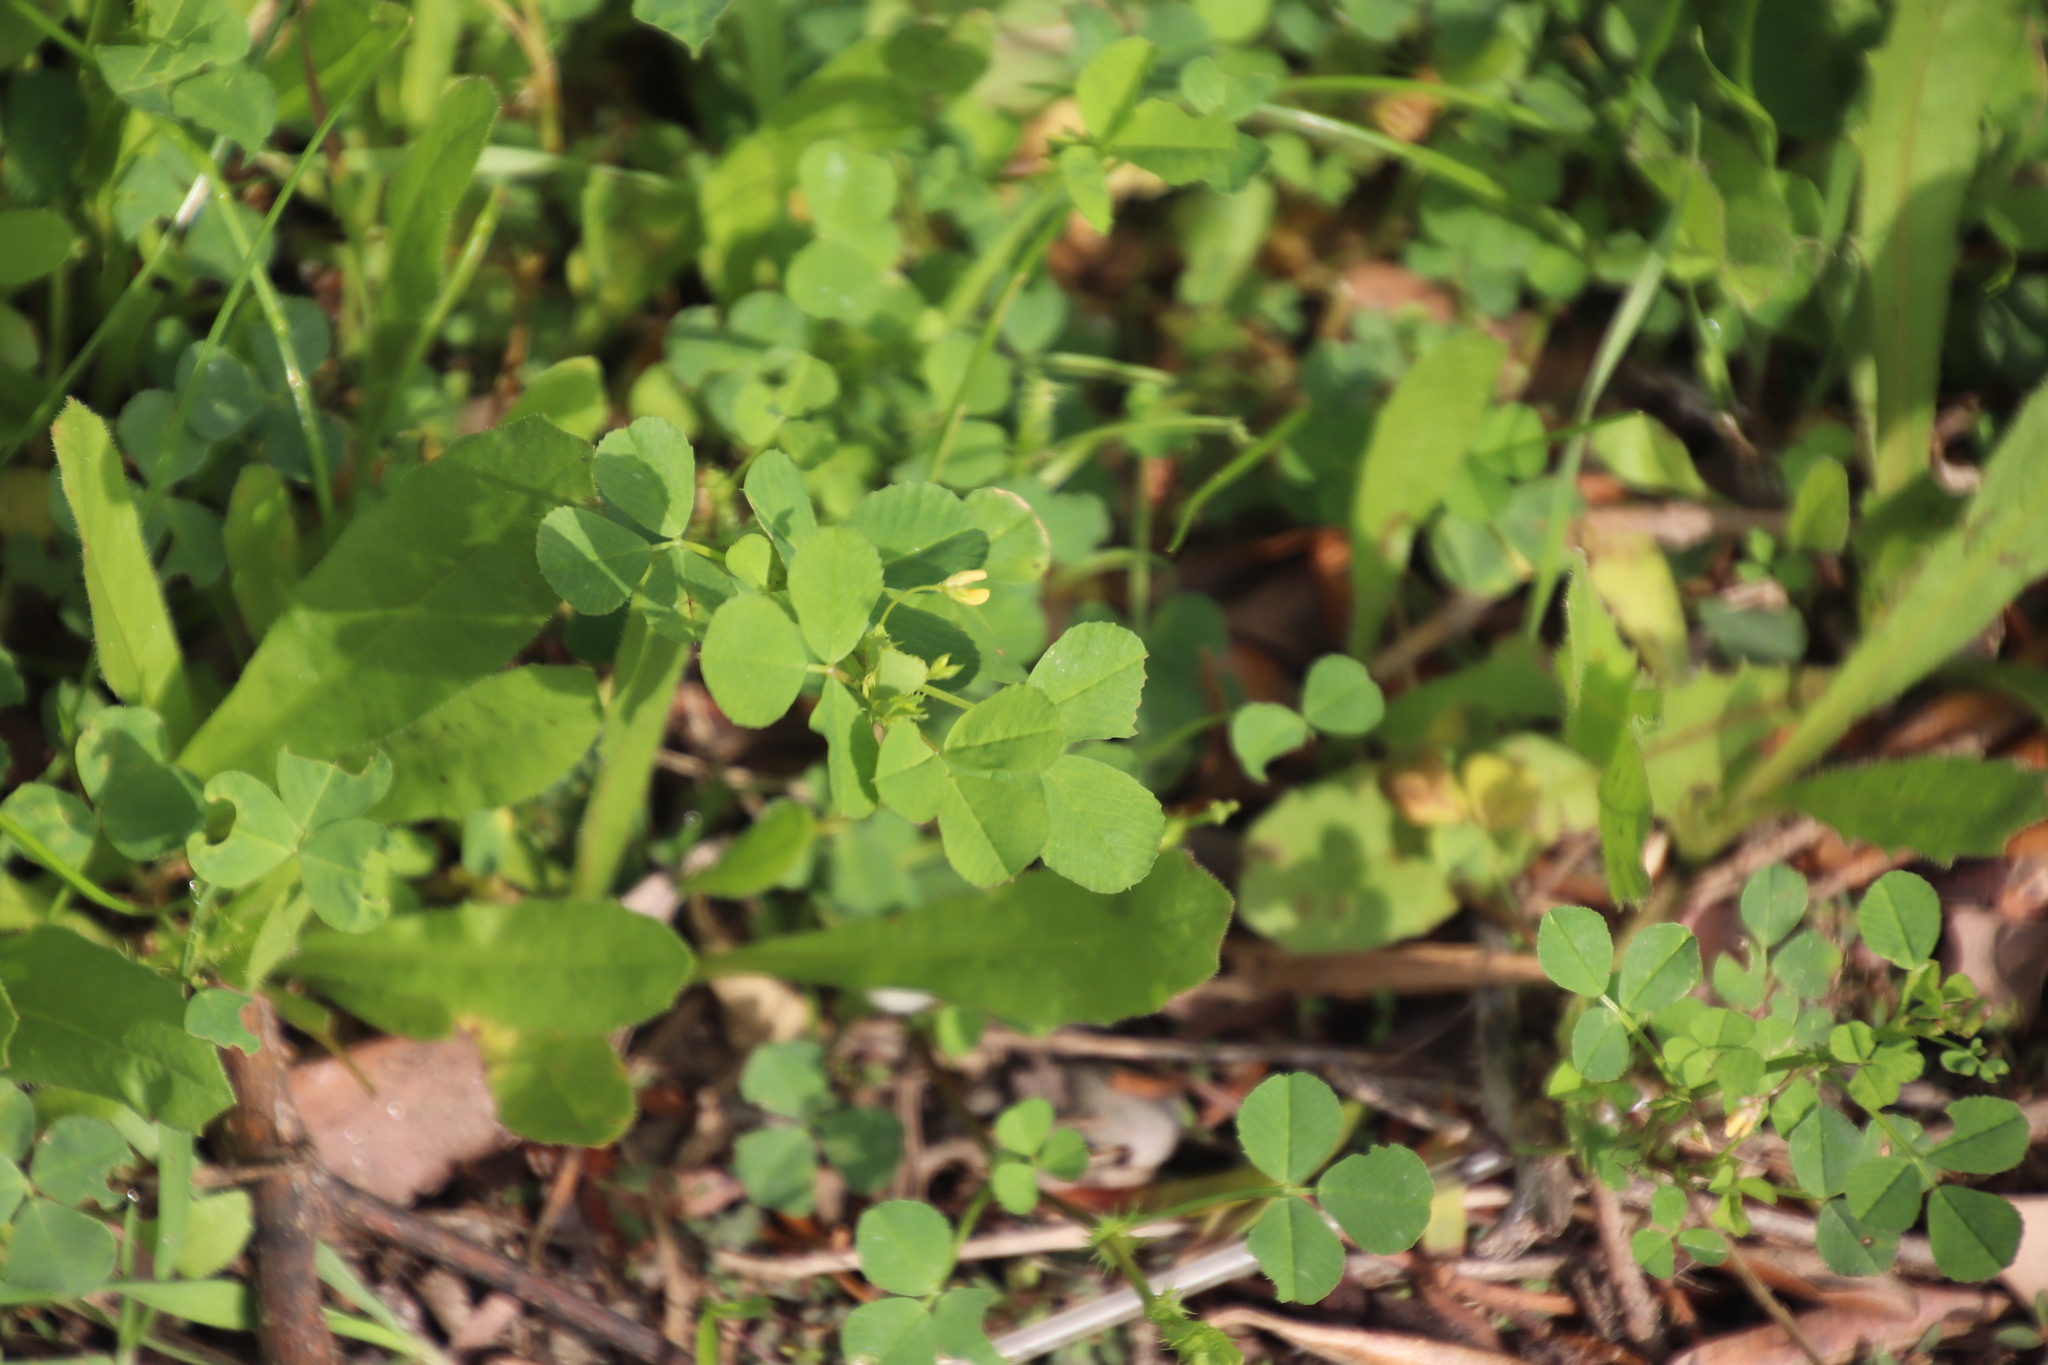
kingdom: Plantae
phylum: Tracheophyta
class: Magnoliopsida
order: Fabales
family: Fabaceae
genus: Medicago
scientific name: Medicago polymorpha
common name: Burclover
